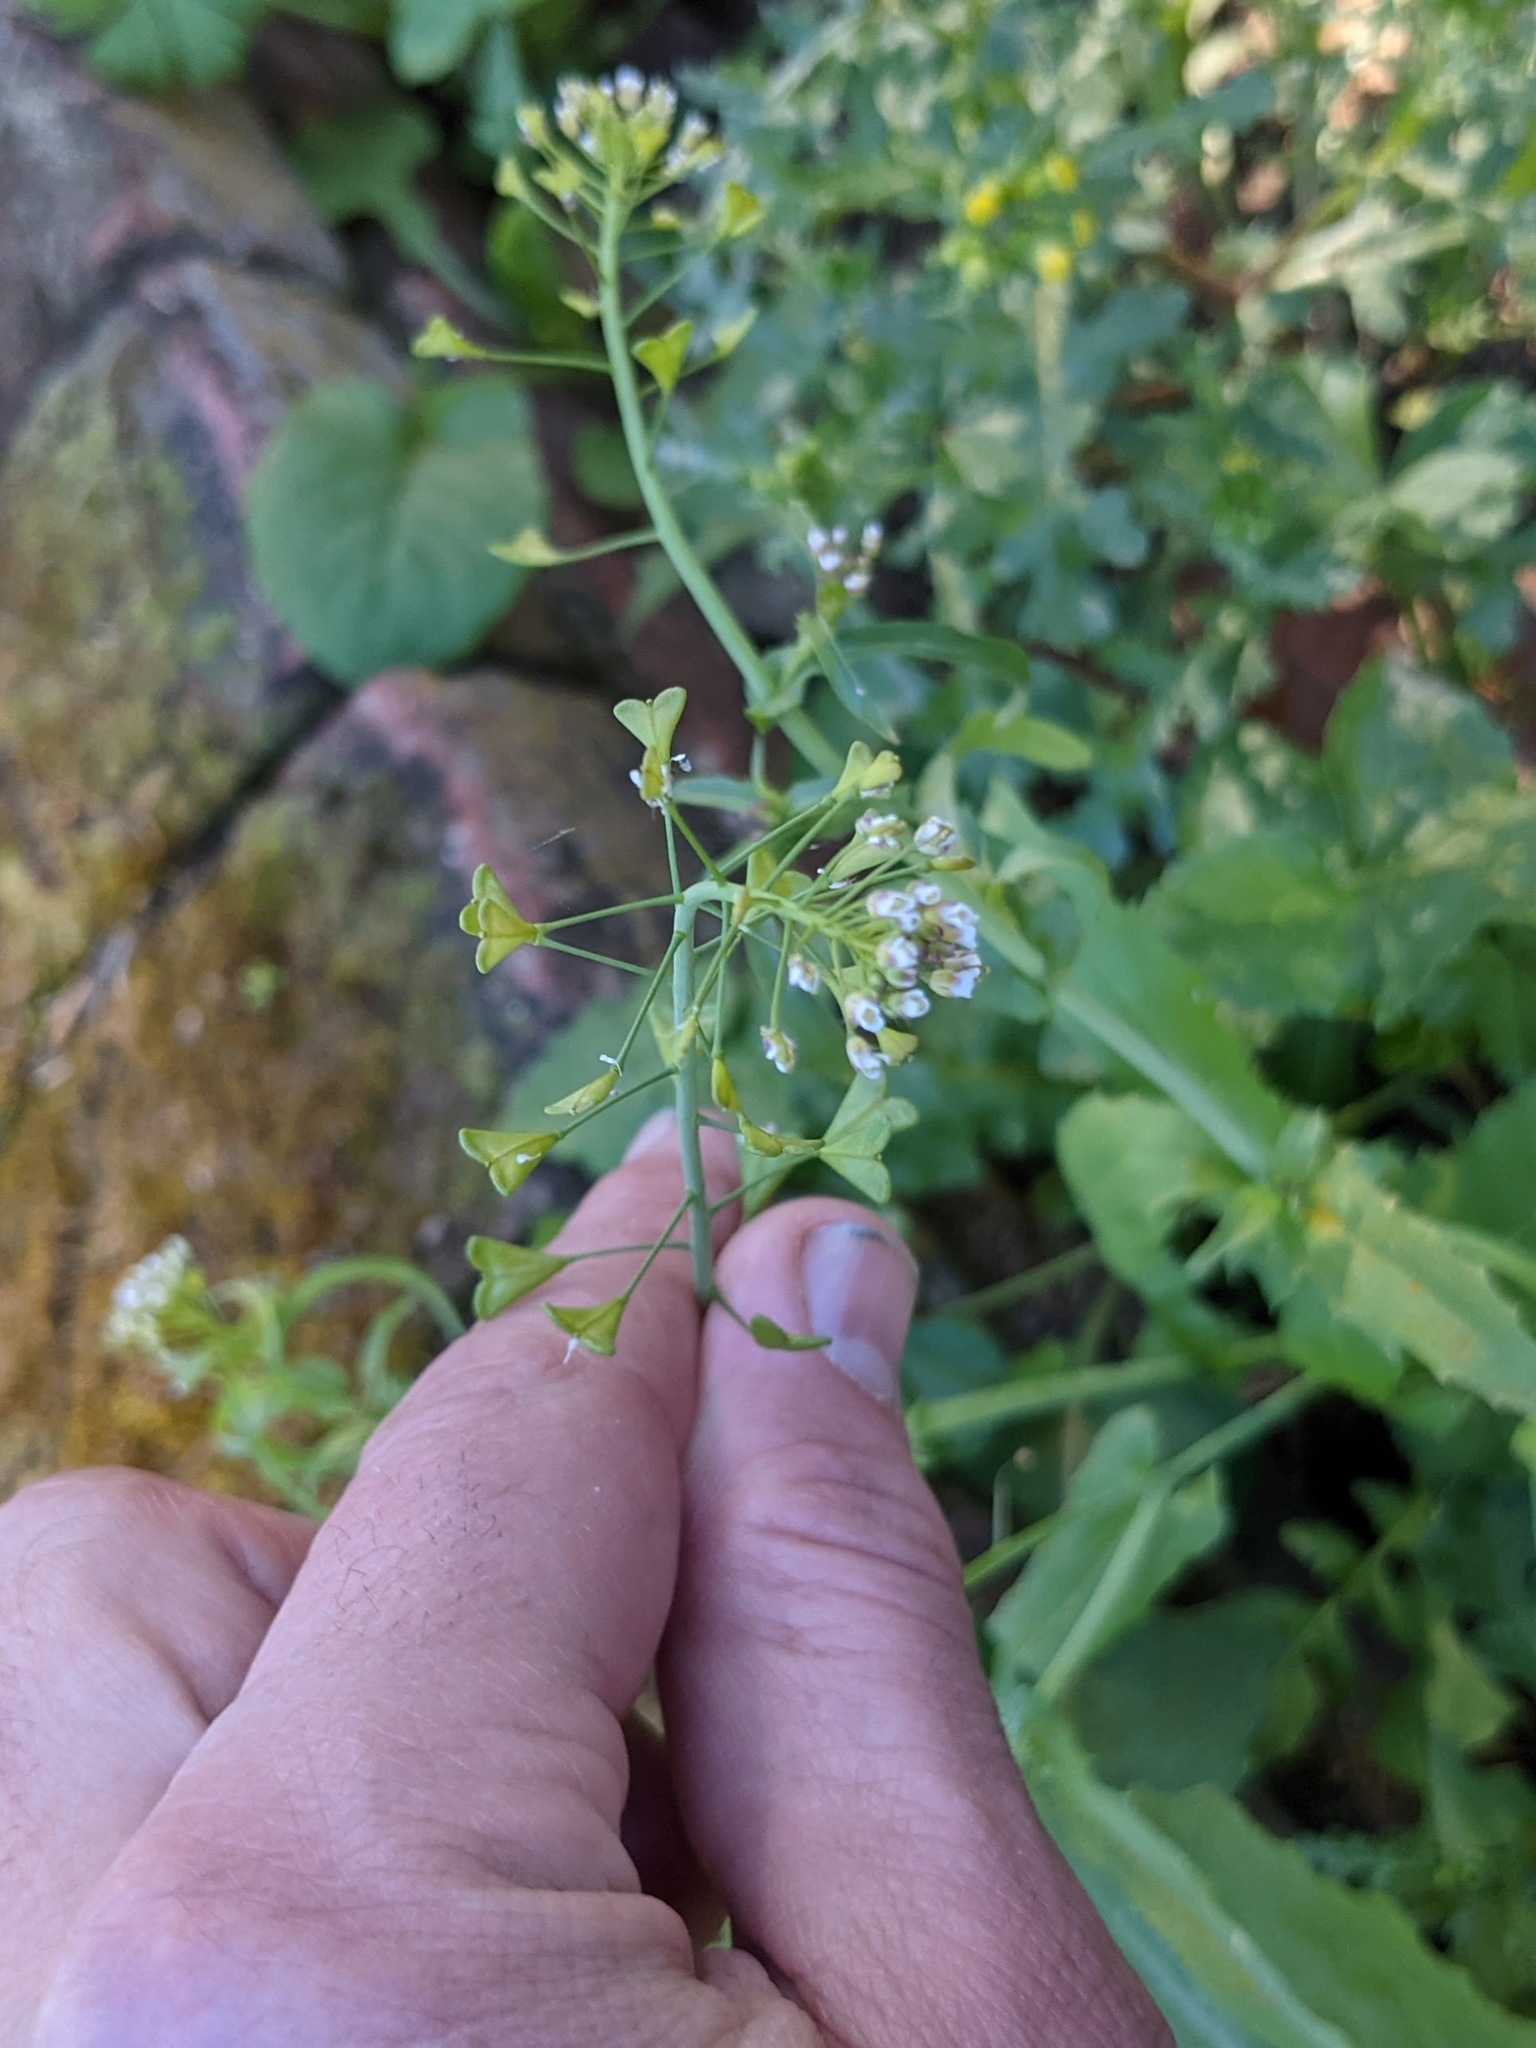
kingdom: Plantae
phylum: Tracheophyta
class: Magnoliopsida
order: Brassicales
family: Brassicaceae
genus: Capsella
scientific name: Capsella bursa-pastoris
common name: Shepherd's purse
